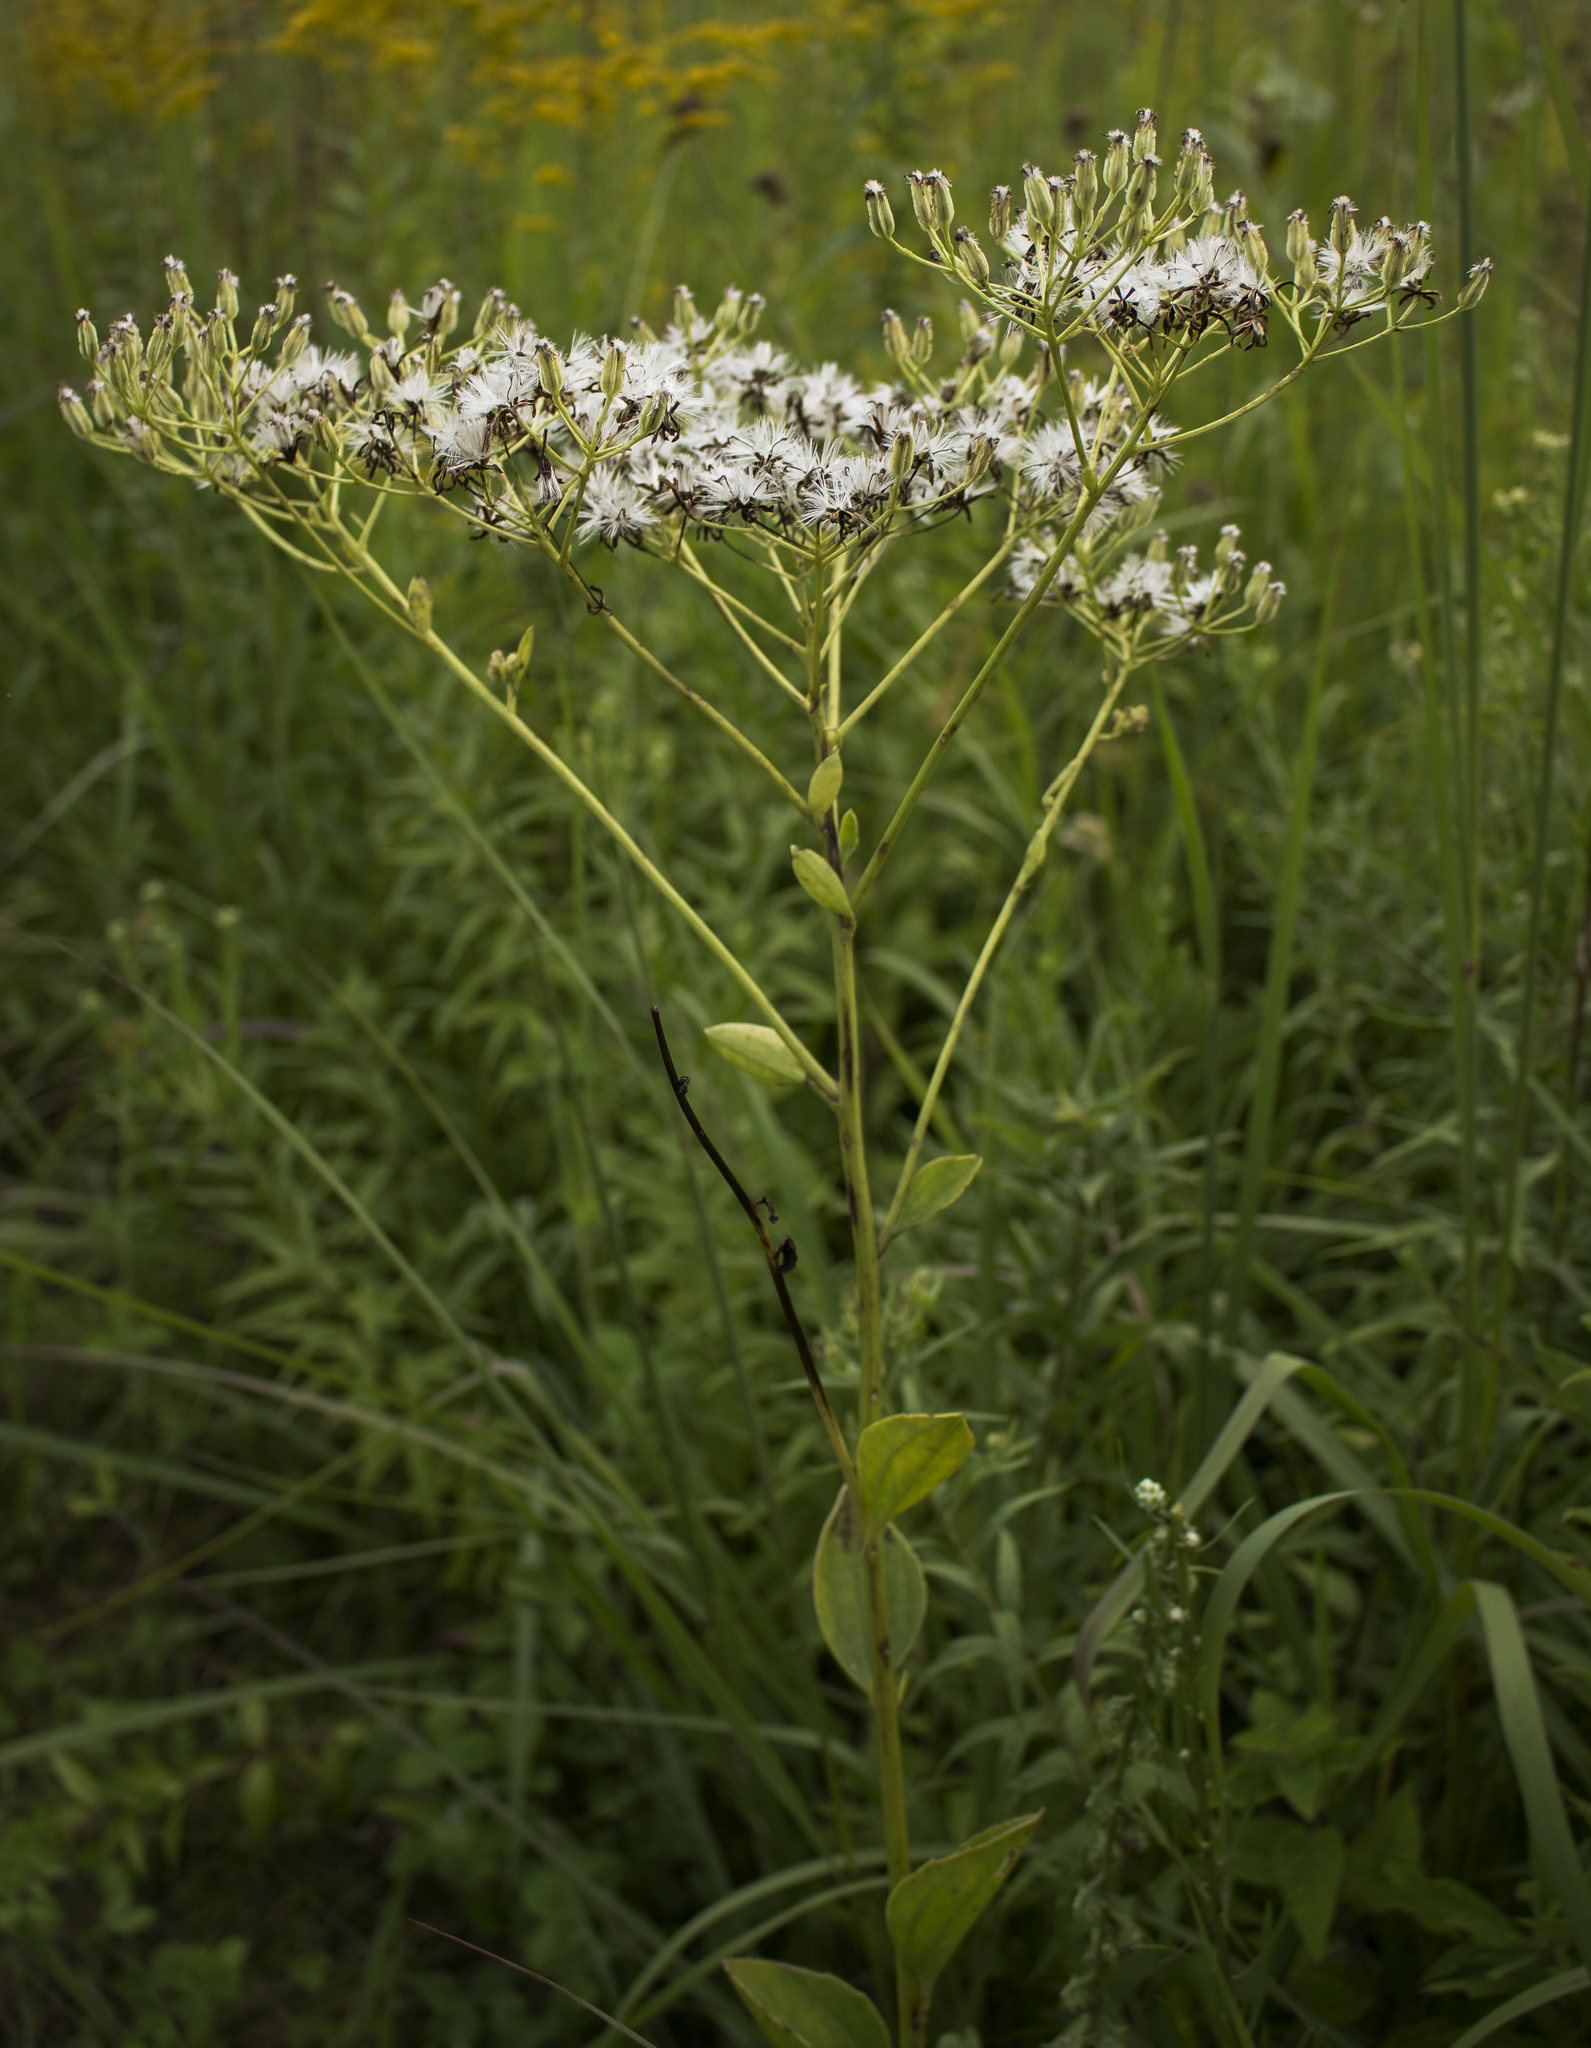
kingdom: Plantae
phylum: Tracheophyta
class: Magnoliopsida
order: Asterales
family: Asteraceae
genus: Arnoglossum
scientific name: Arnoglossum plantagineum
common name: Groove-stemmed indian-plantain
